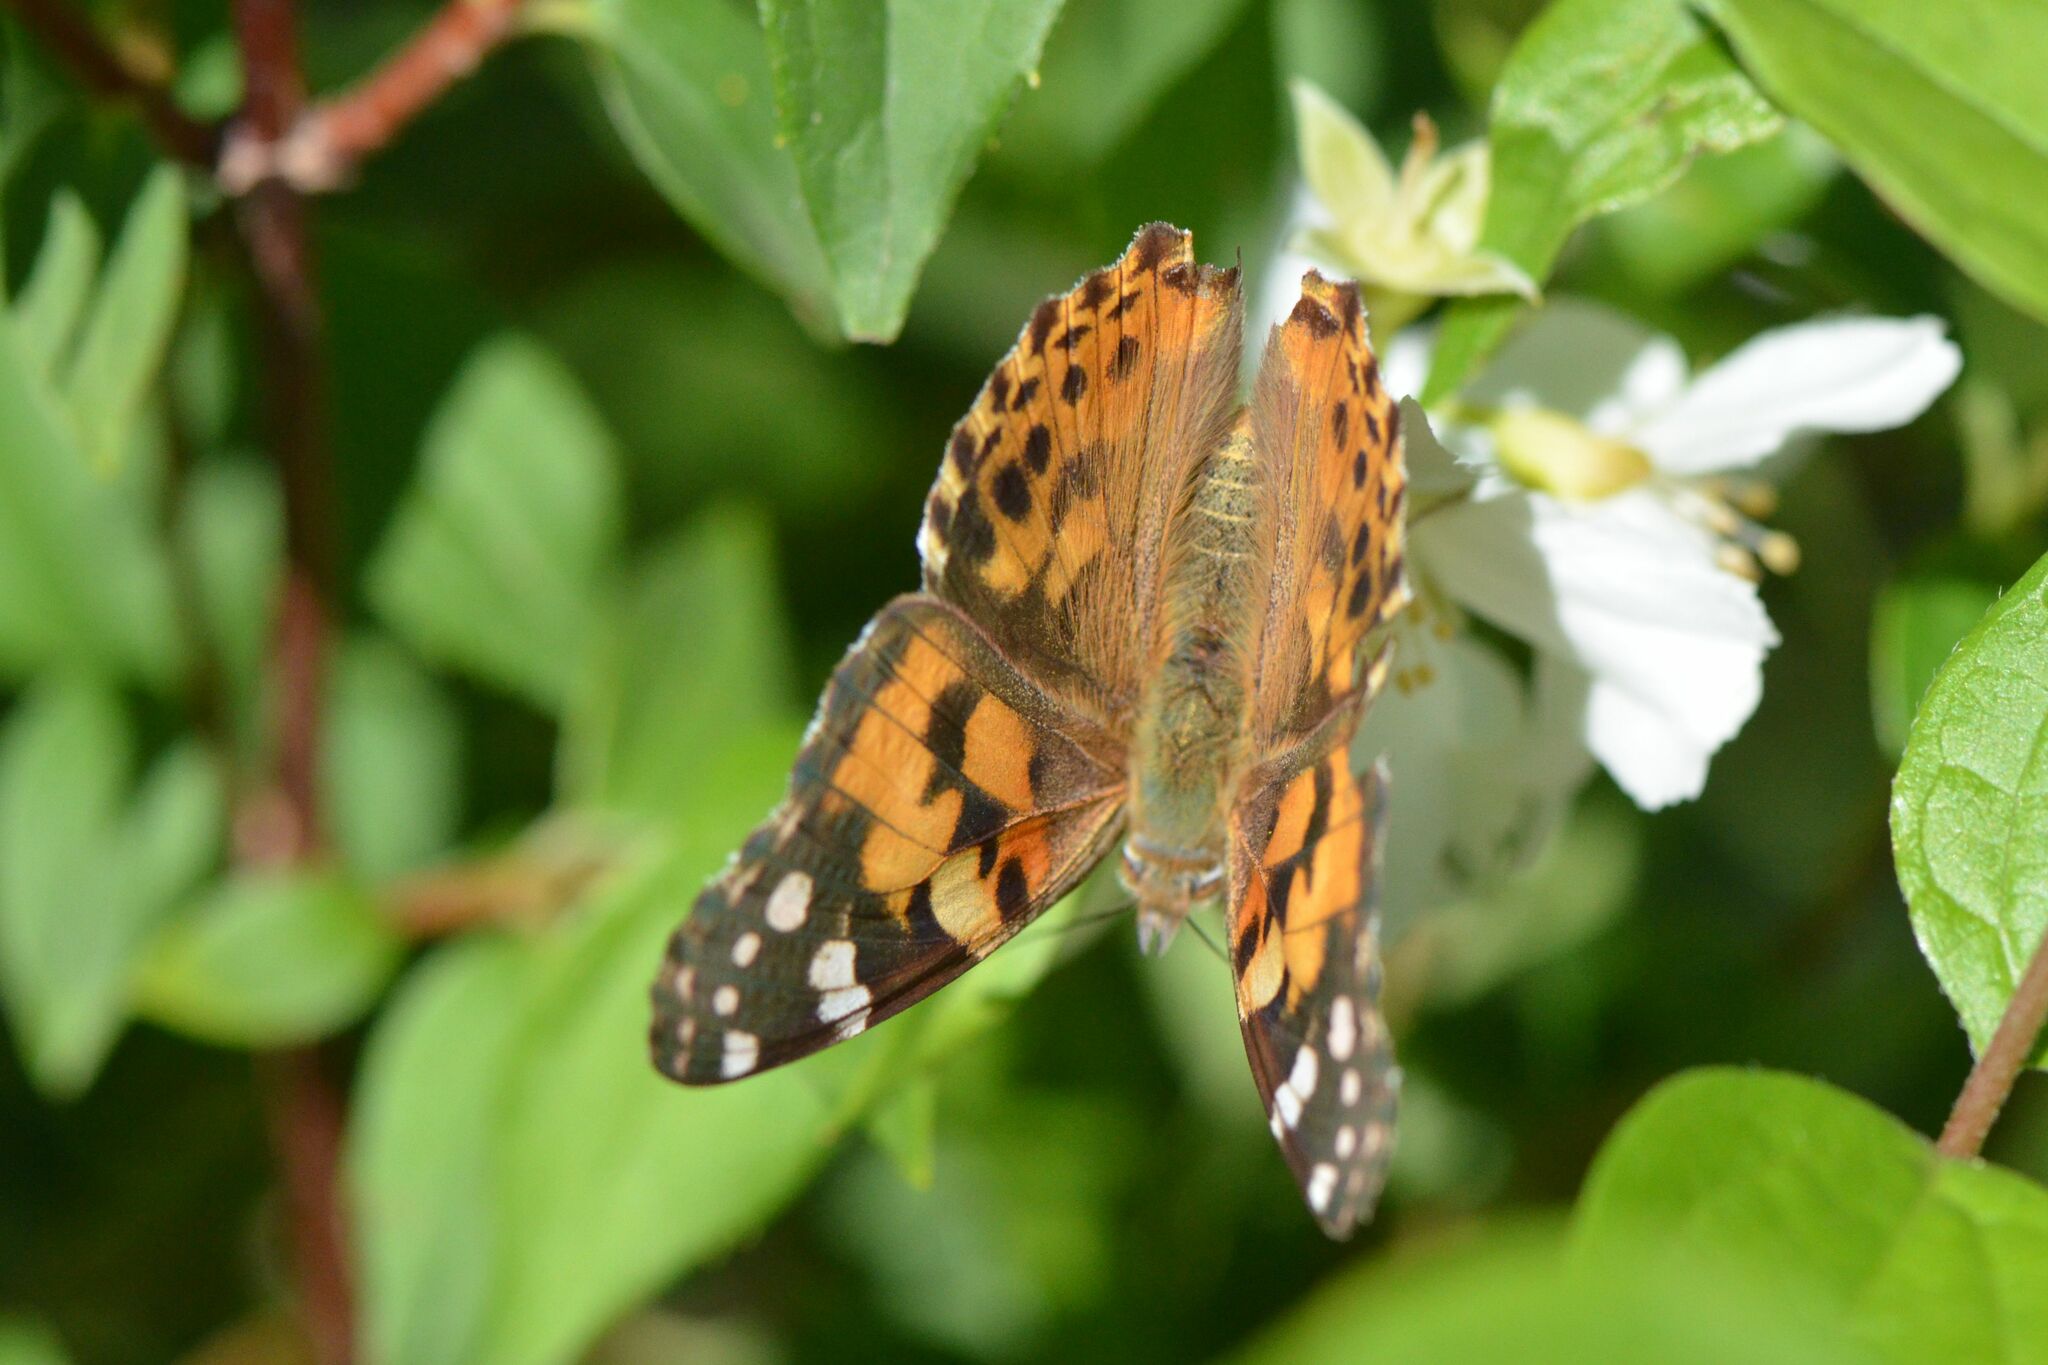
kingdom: Animalia
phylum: Arthropoda
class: Insecta
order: Lepidoptera
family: Nymphalidae
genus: Vanessa
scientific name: Vanessa cardui
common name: Painted lady
